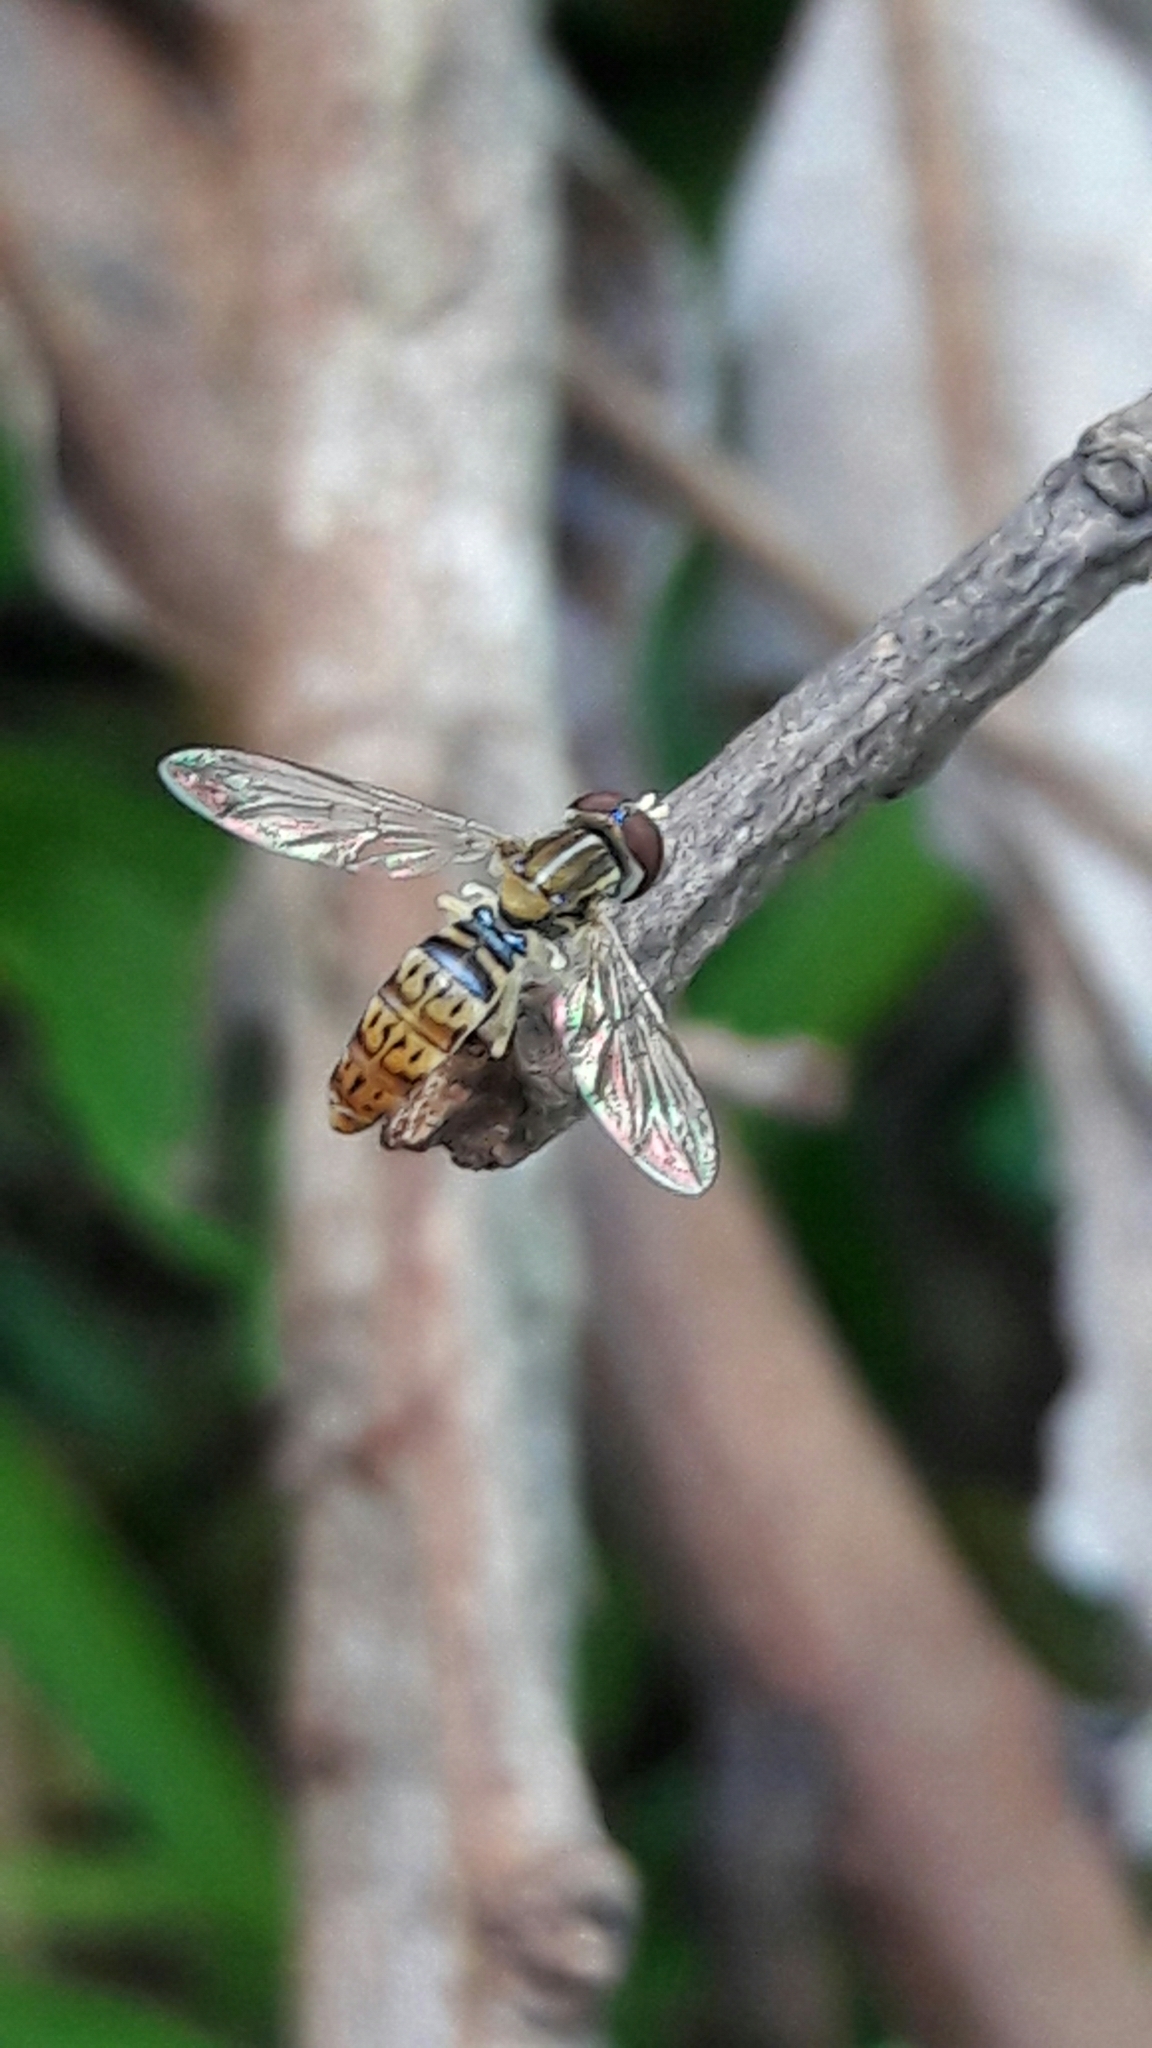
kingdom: Animalia
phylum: Arthropoda
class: Insecta
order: Diptera
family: Syrphidae
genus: Toxomerus
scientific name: Toxomerus
